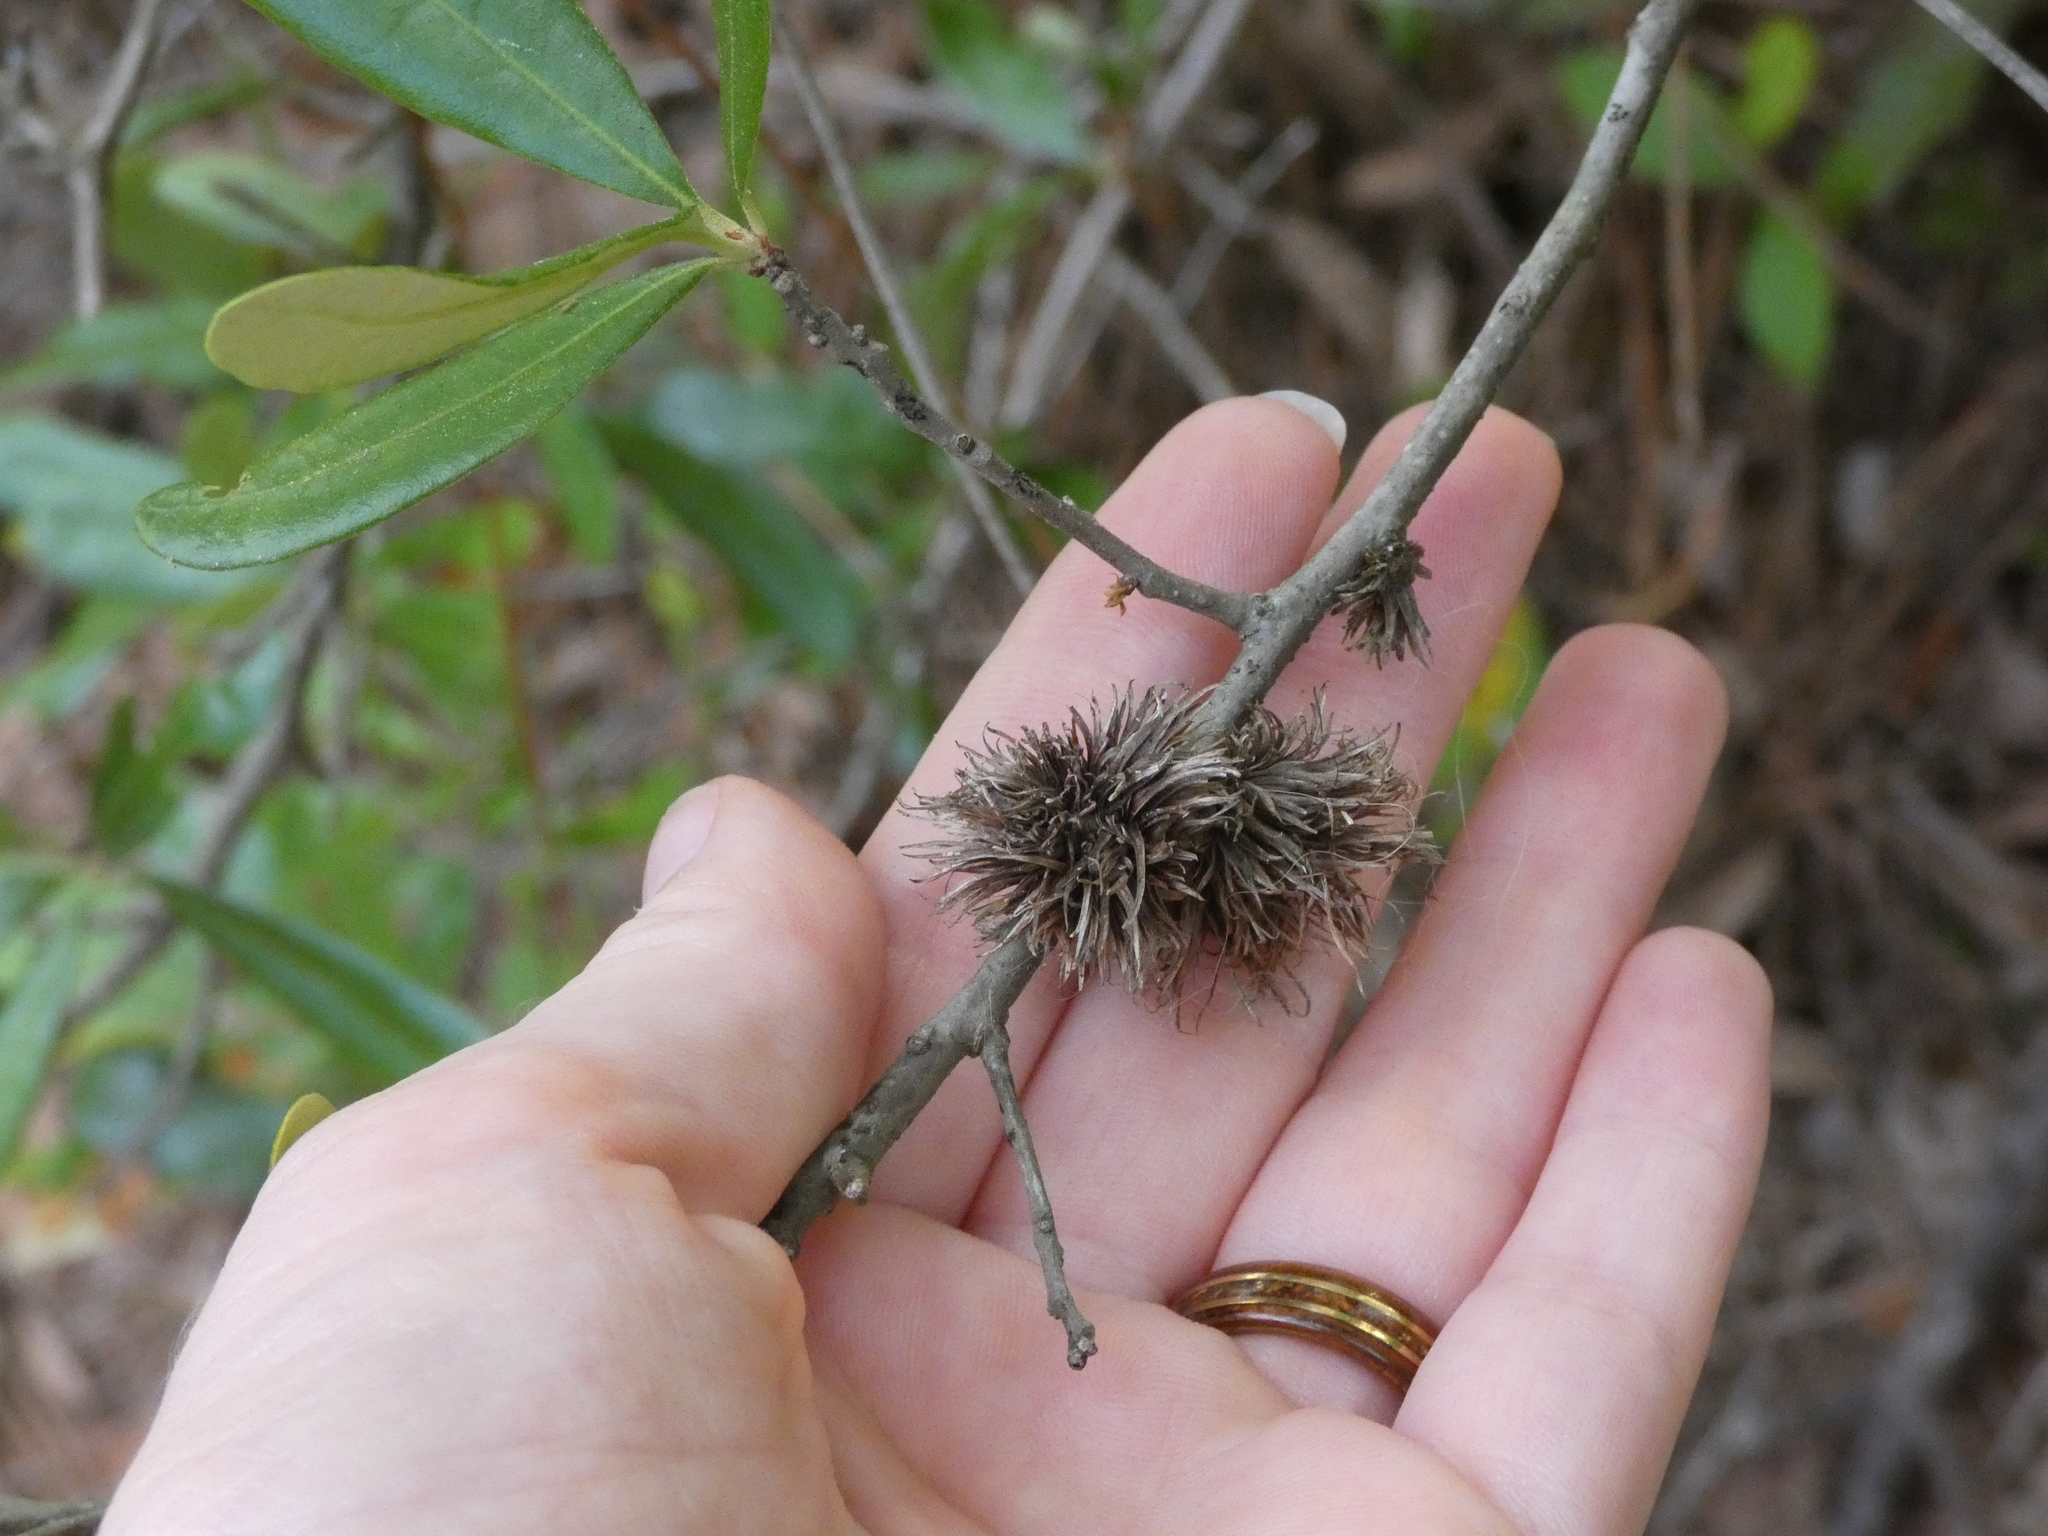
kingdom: Animalia
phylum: Arthropoda
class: Insecta
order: Hymenoptera
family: Cynipidae
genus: Andricus
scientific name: Andricus quercusfoliatus
